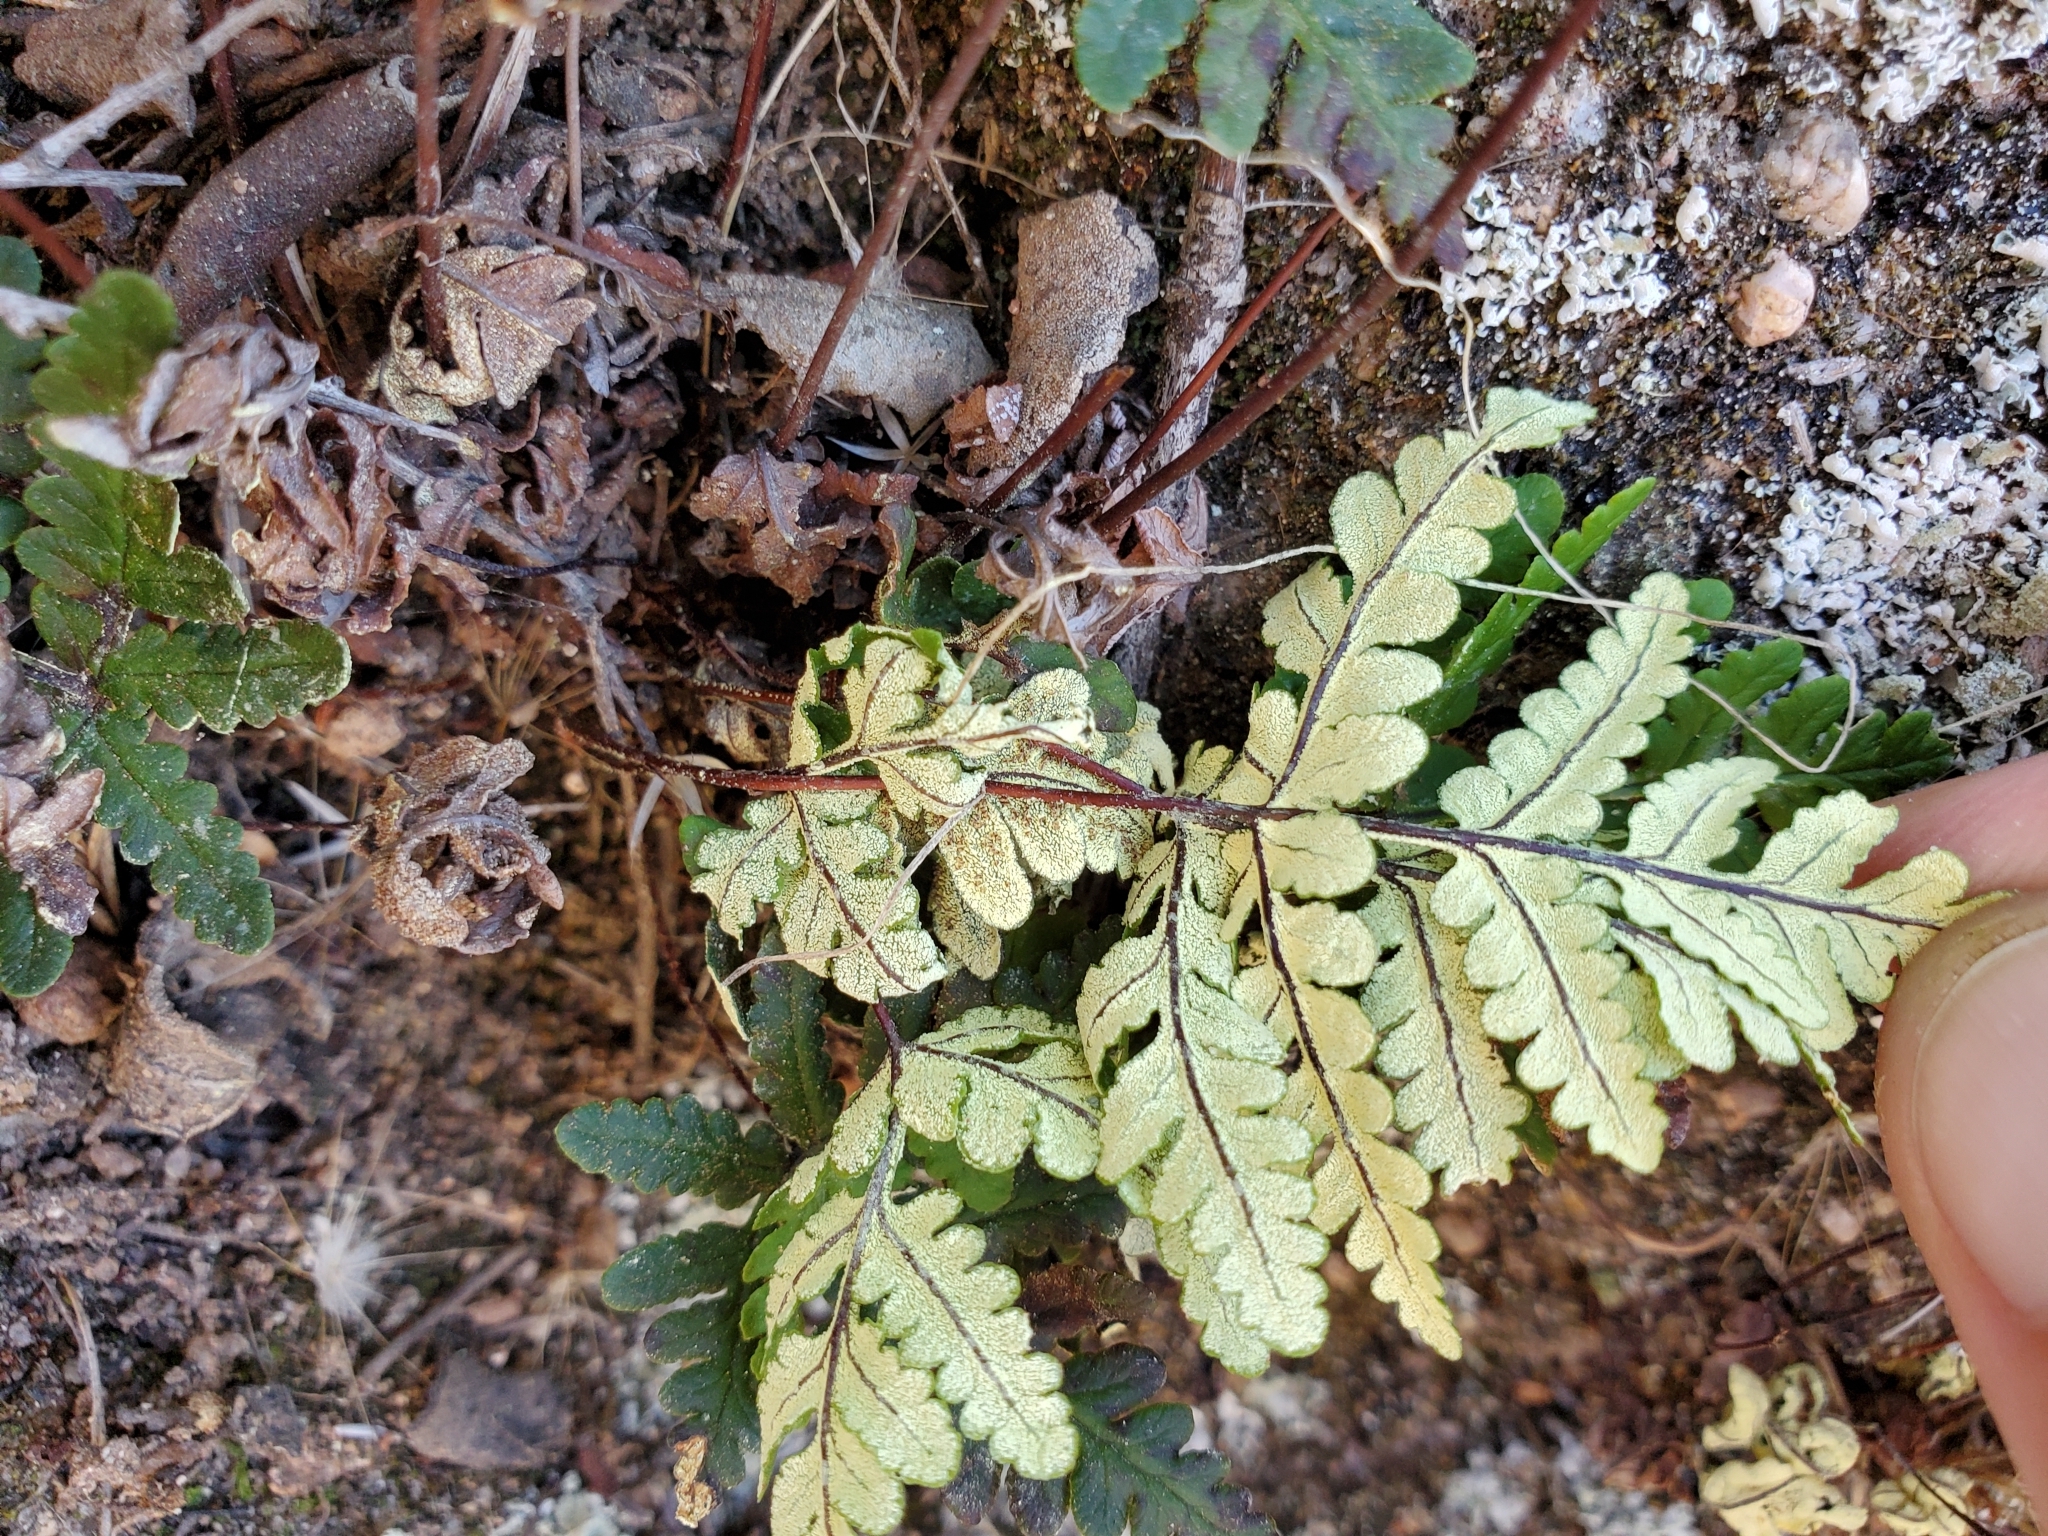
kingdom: Plantae
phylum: Tracheophyta
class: Polypodiopsida
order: Polypodiales
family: Pteridaceae
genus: Pentagramma
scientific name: Pentagramma triangularis
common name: Gold fern
